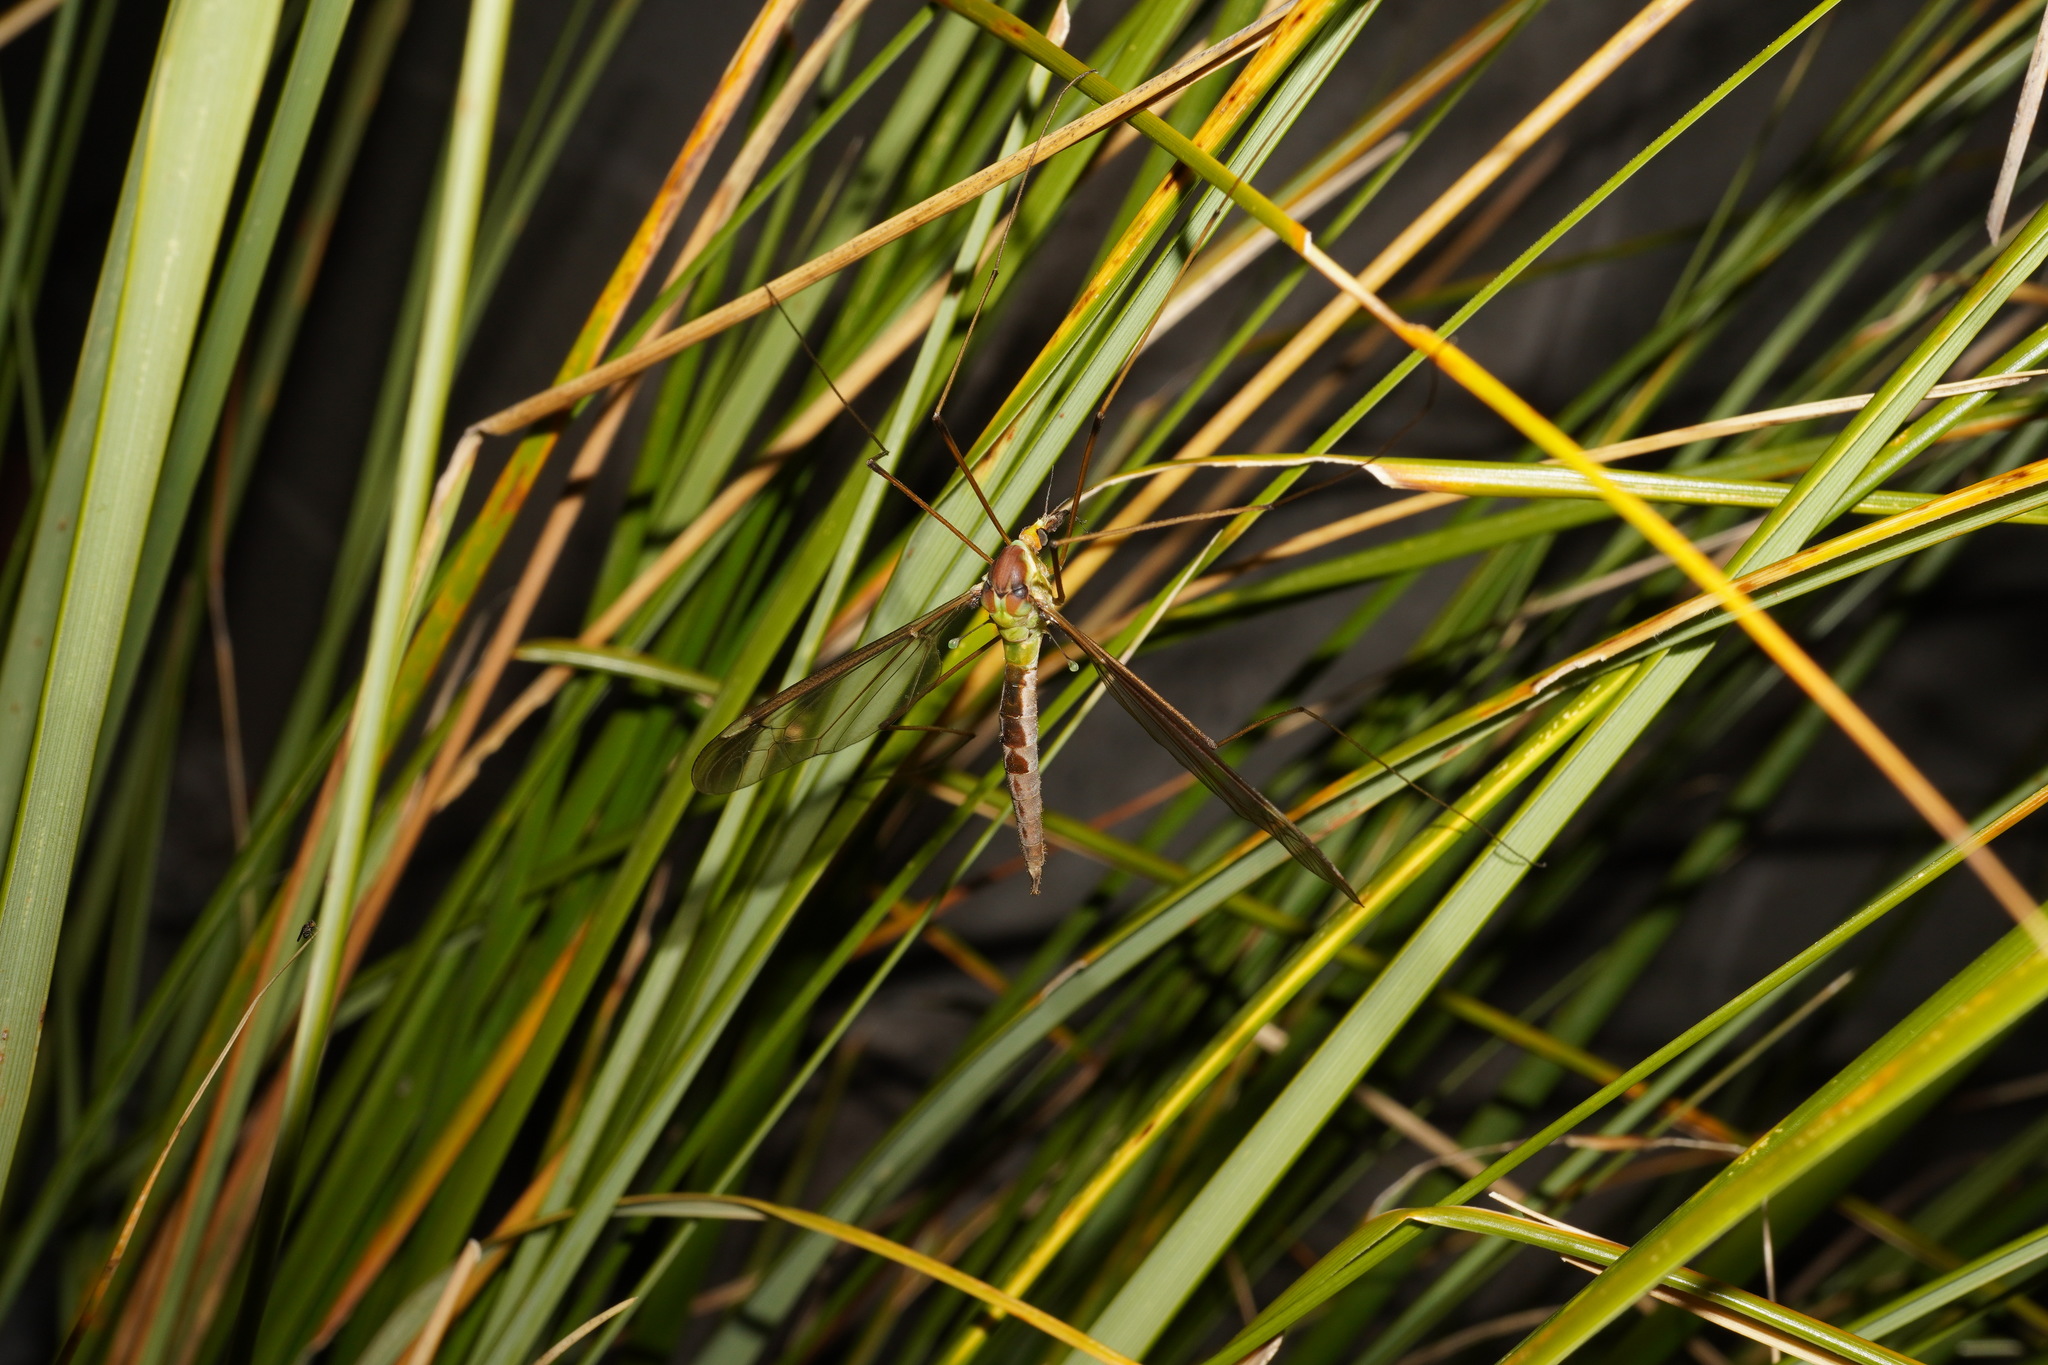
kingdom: Animalia
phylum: Arthropoda
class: Insecta
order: Diptera
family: Tipulidae
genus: Leptotarsus
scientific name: Leptotarsus albistigma
